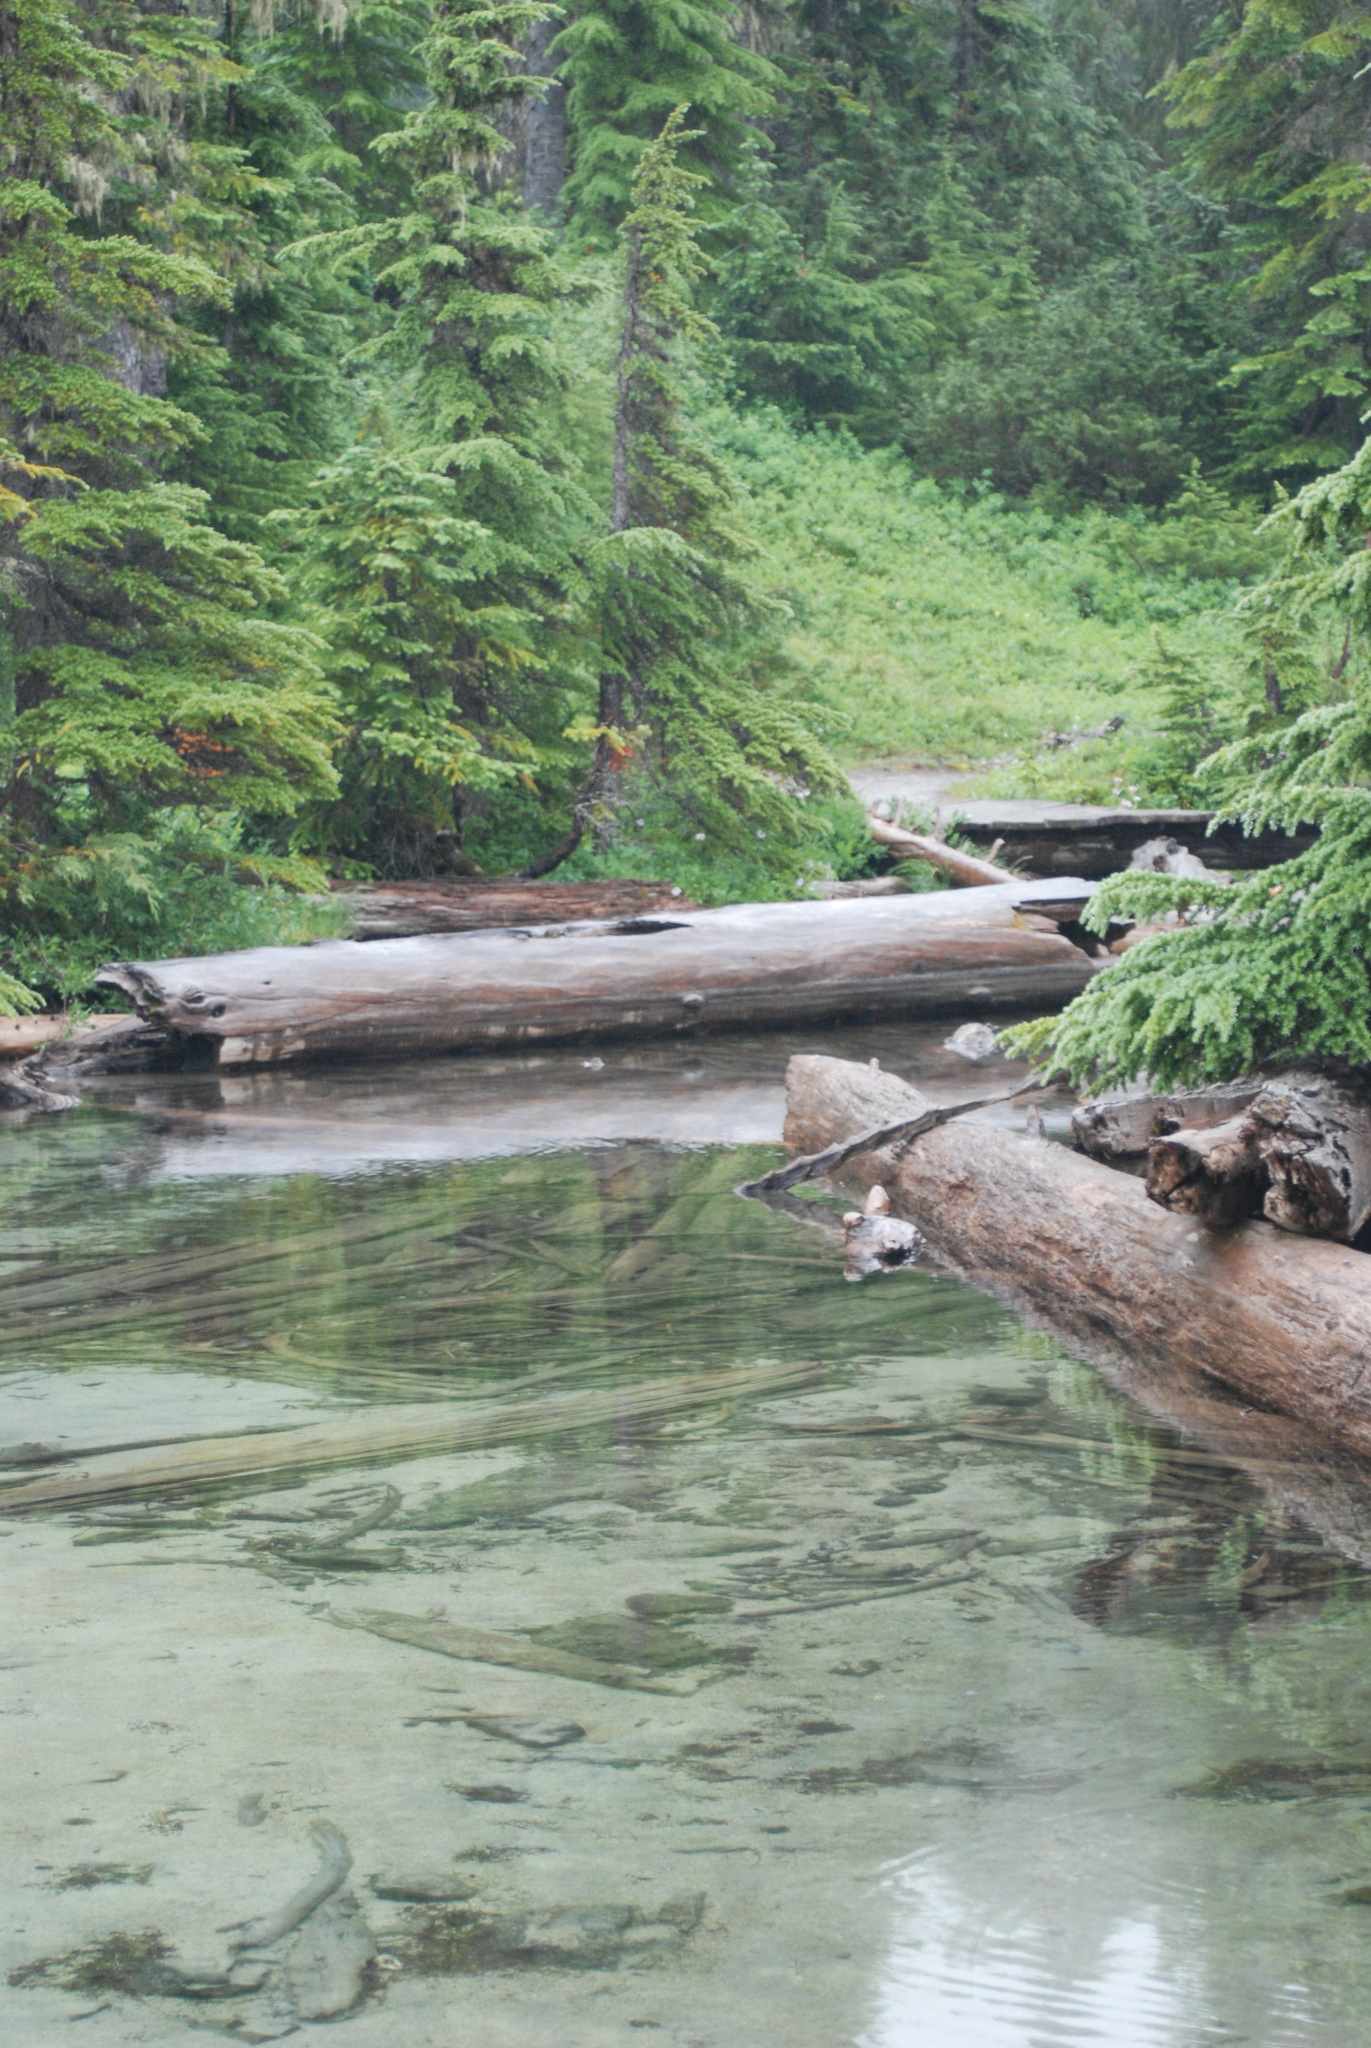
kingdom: Plantae
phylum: Tracheophyta
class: Pinopsida
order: Pinales
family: Pinaceae
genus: Tsuga
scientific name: Tsuga mertensiana
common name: Mountain hemlock
